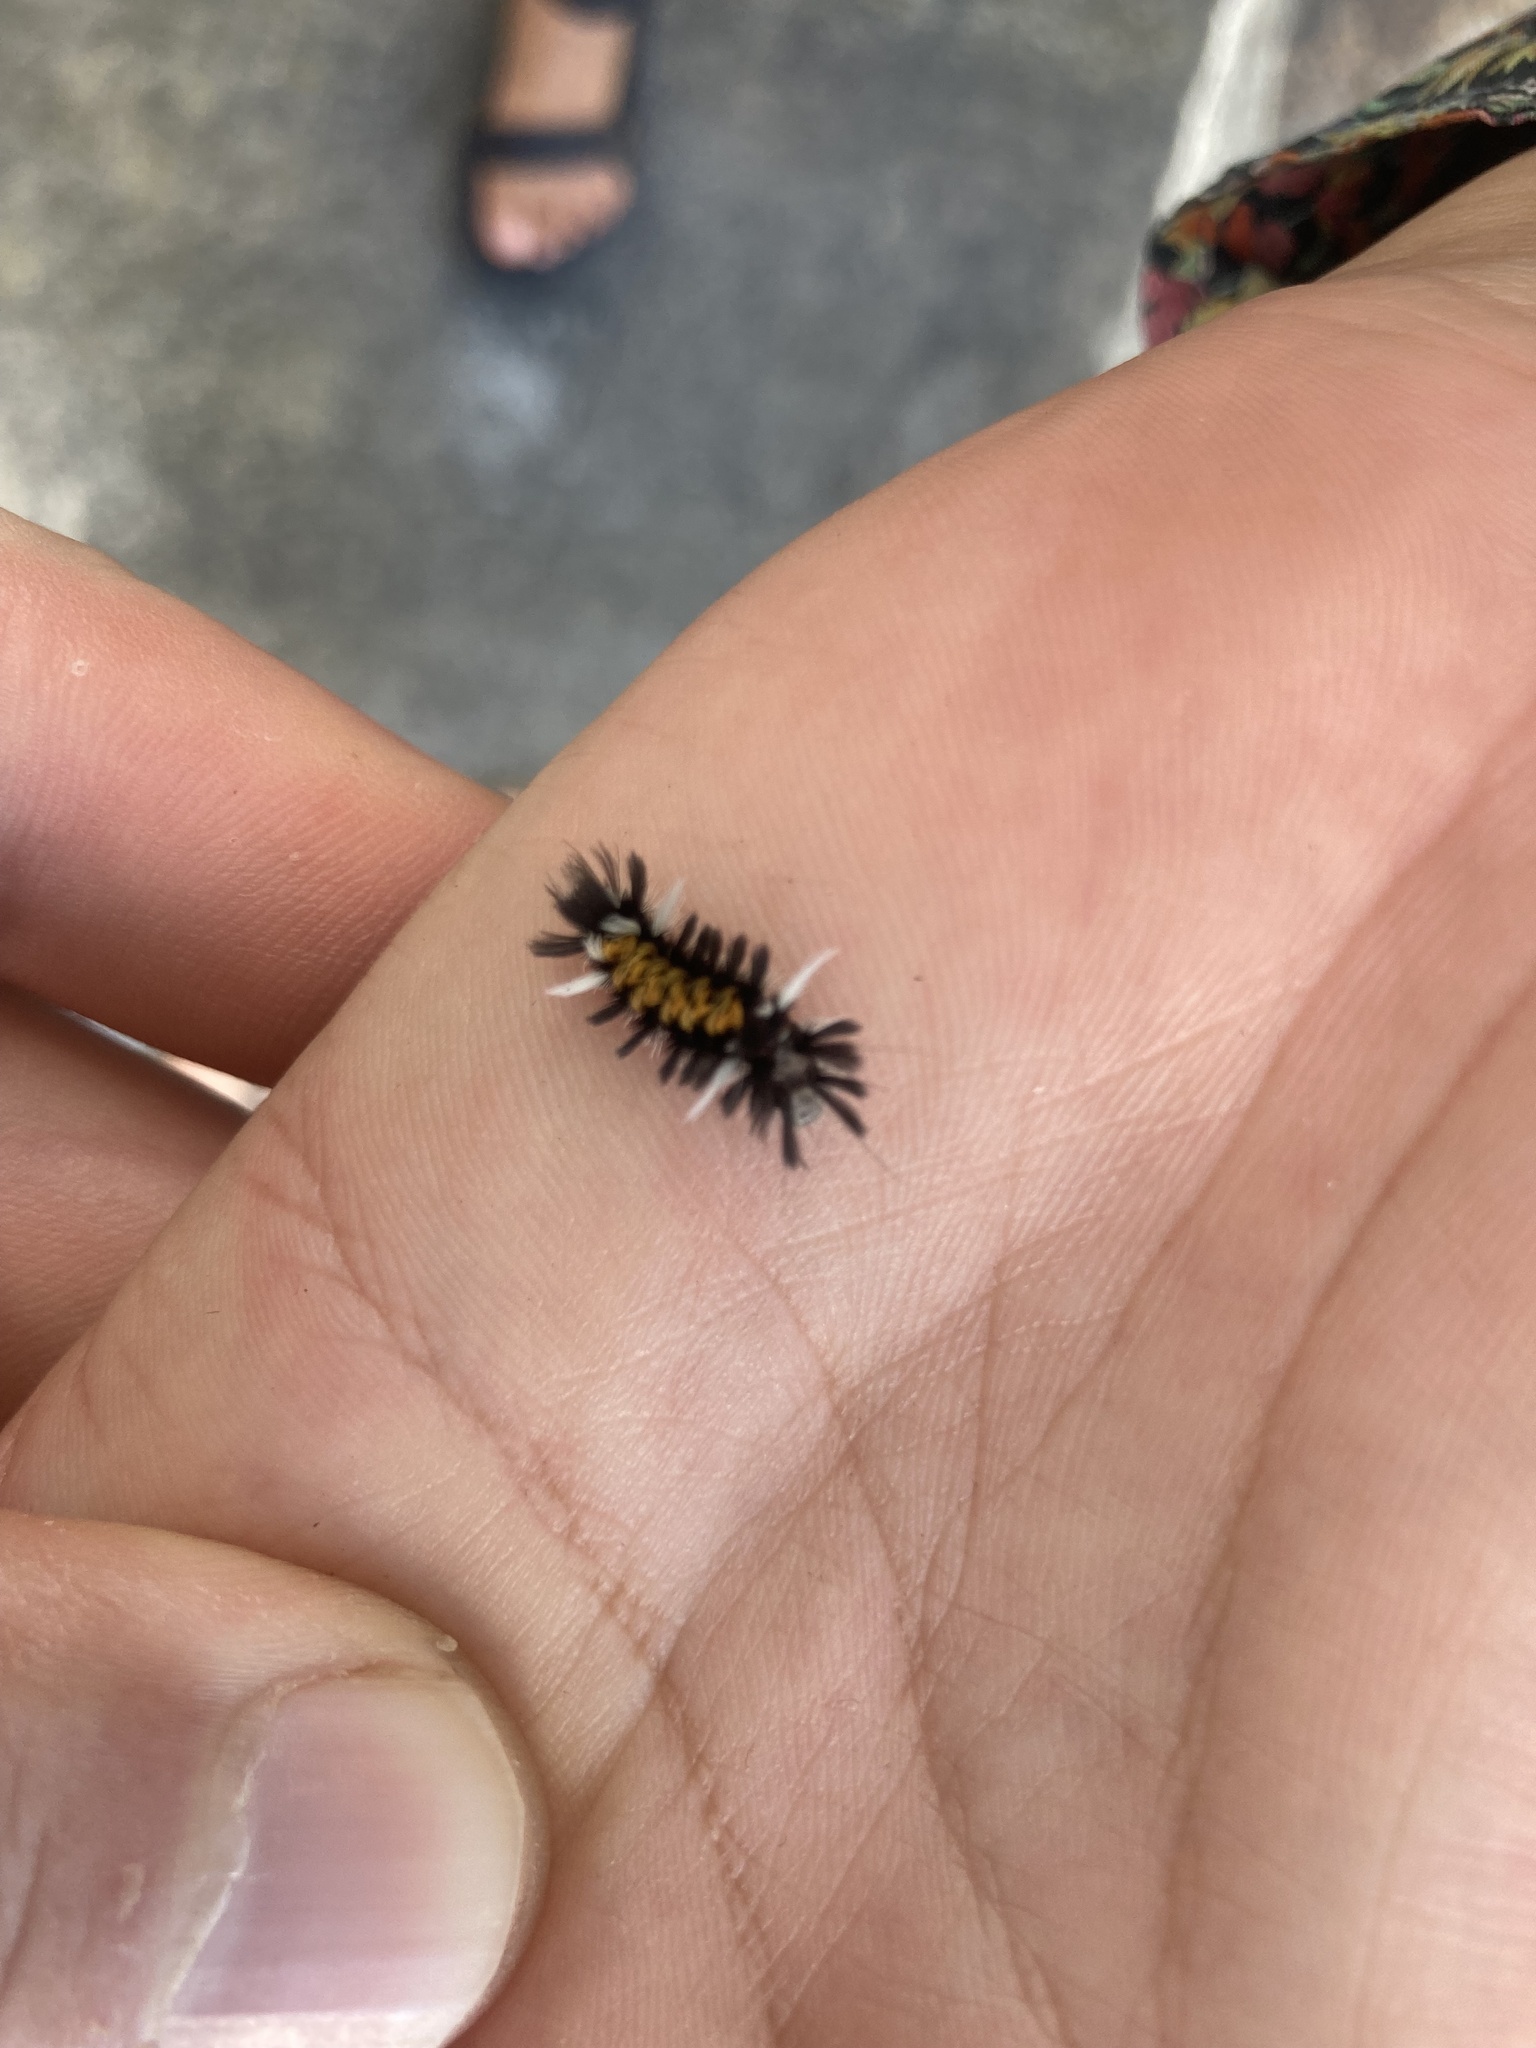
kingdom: Animalia
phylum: Arthropoda
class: Insecta
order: Lepidoptera
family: Erebidae
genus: Euchaetes
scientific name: Euchaetes egle
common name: Milkweed tussock moth
